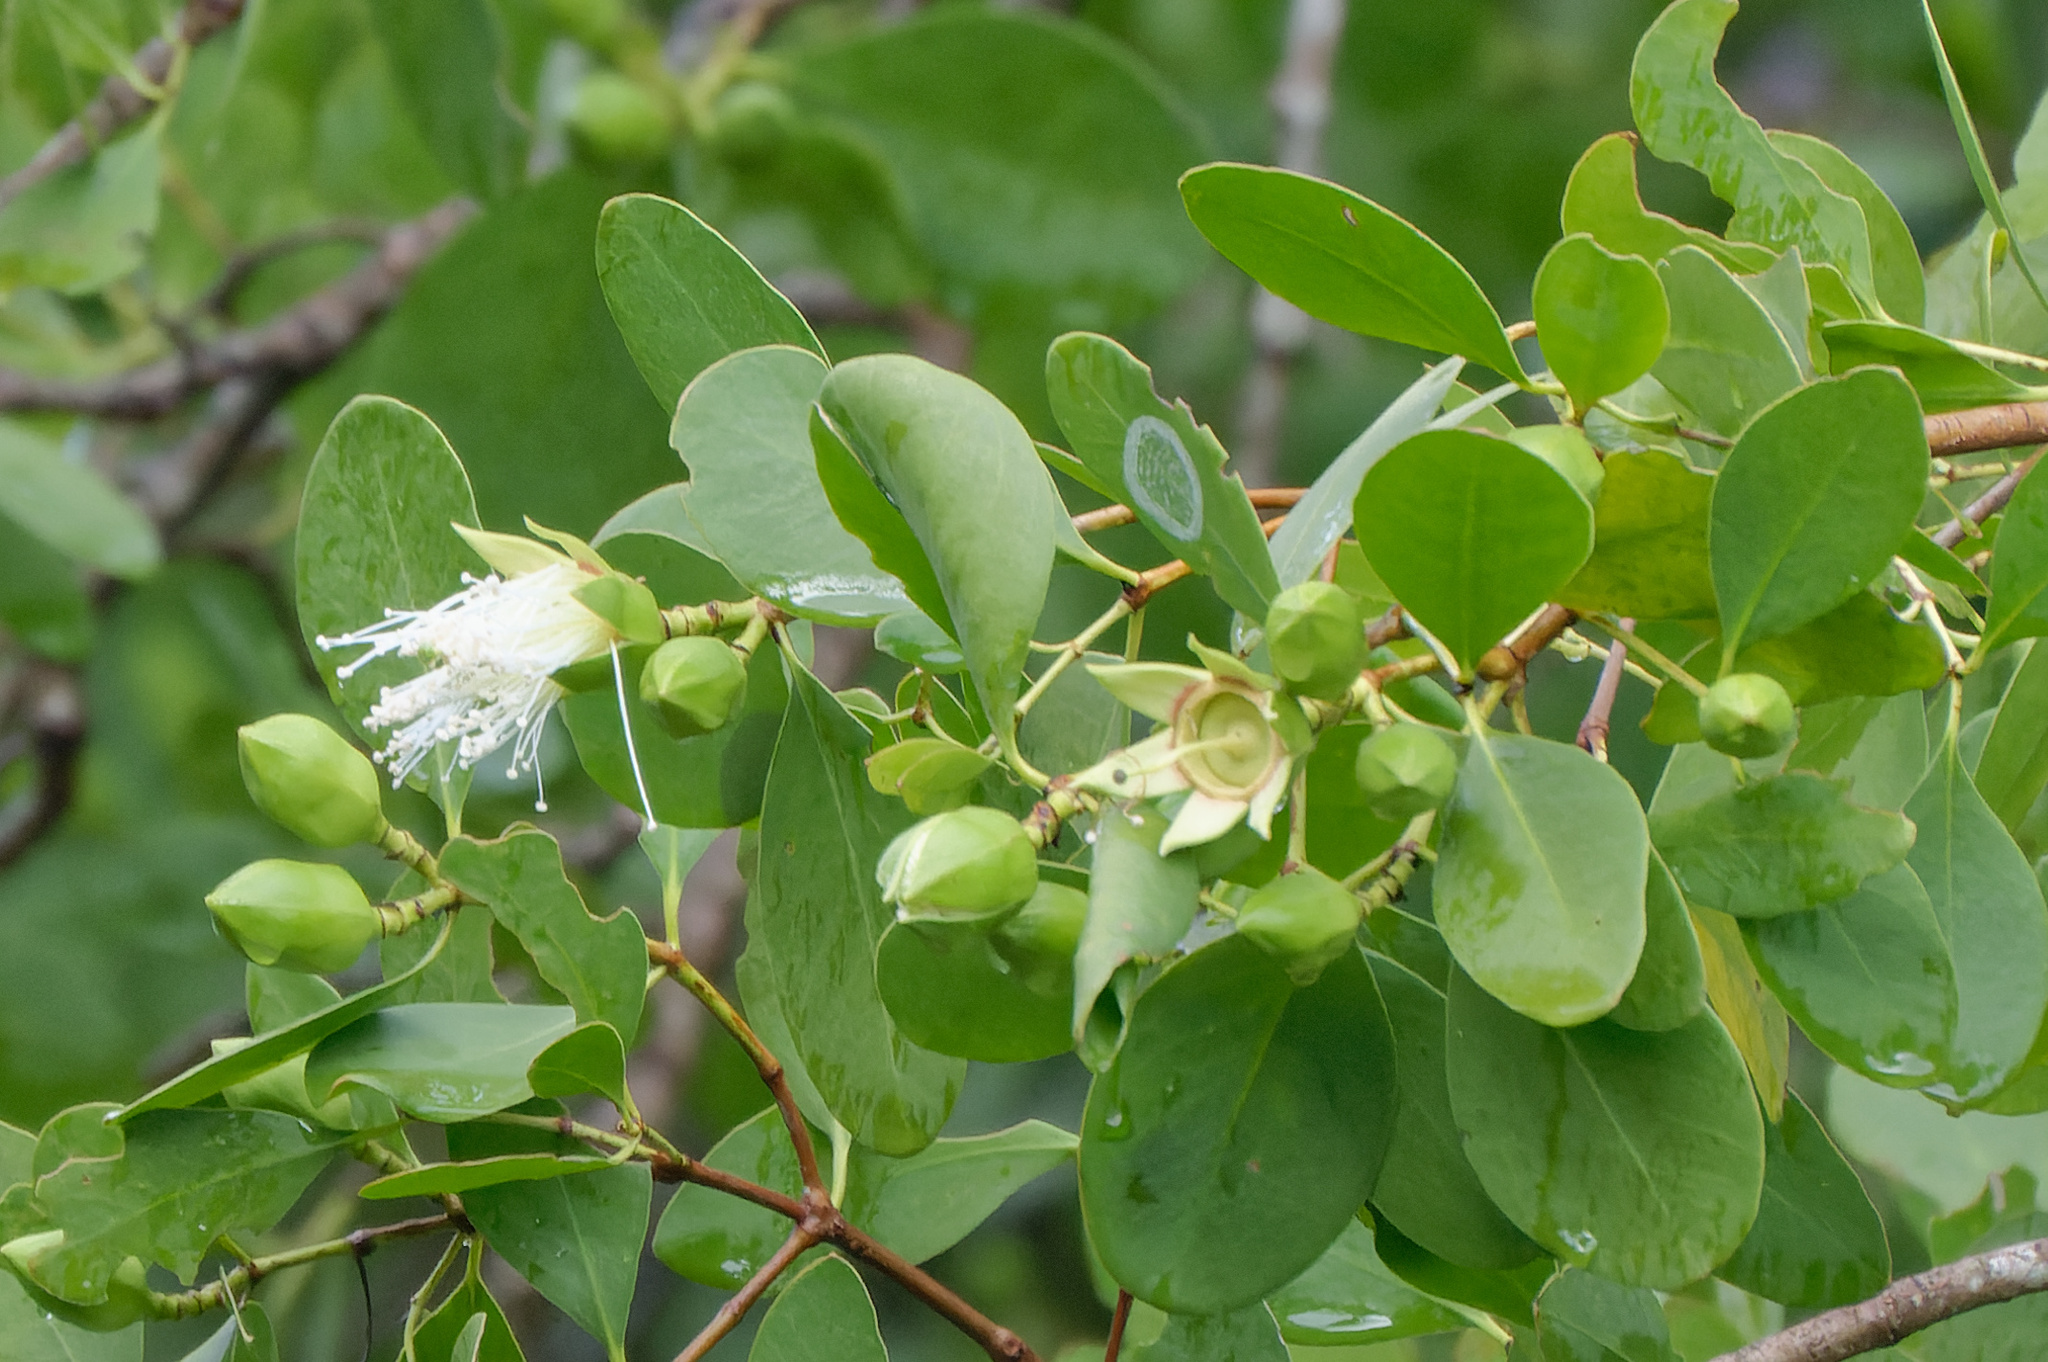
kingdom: Plantae
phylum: Tracheophyta
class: Magnoliopsida
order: Myrtales
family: Lythraceae
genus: Sonneratia
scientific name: Sonneratia alba
